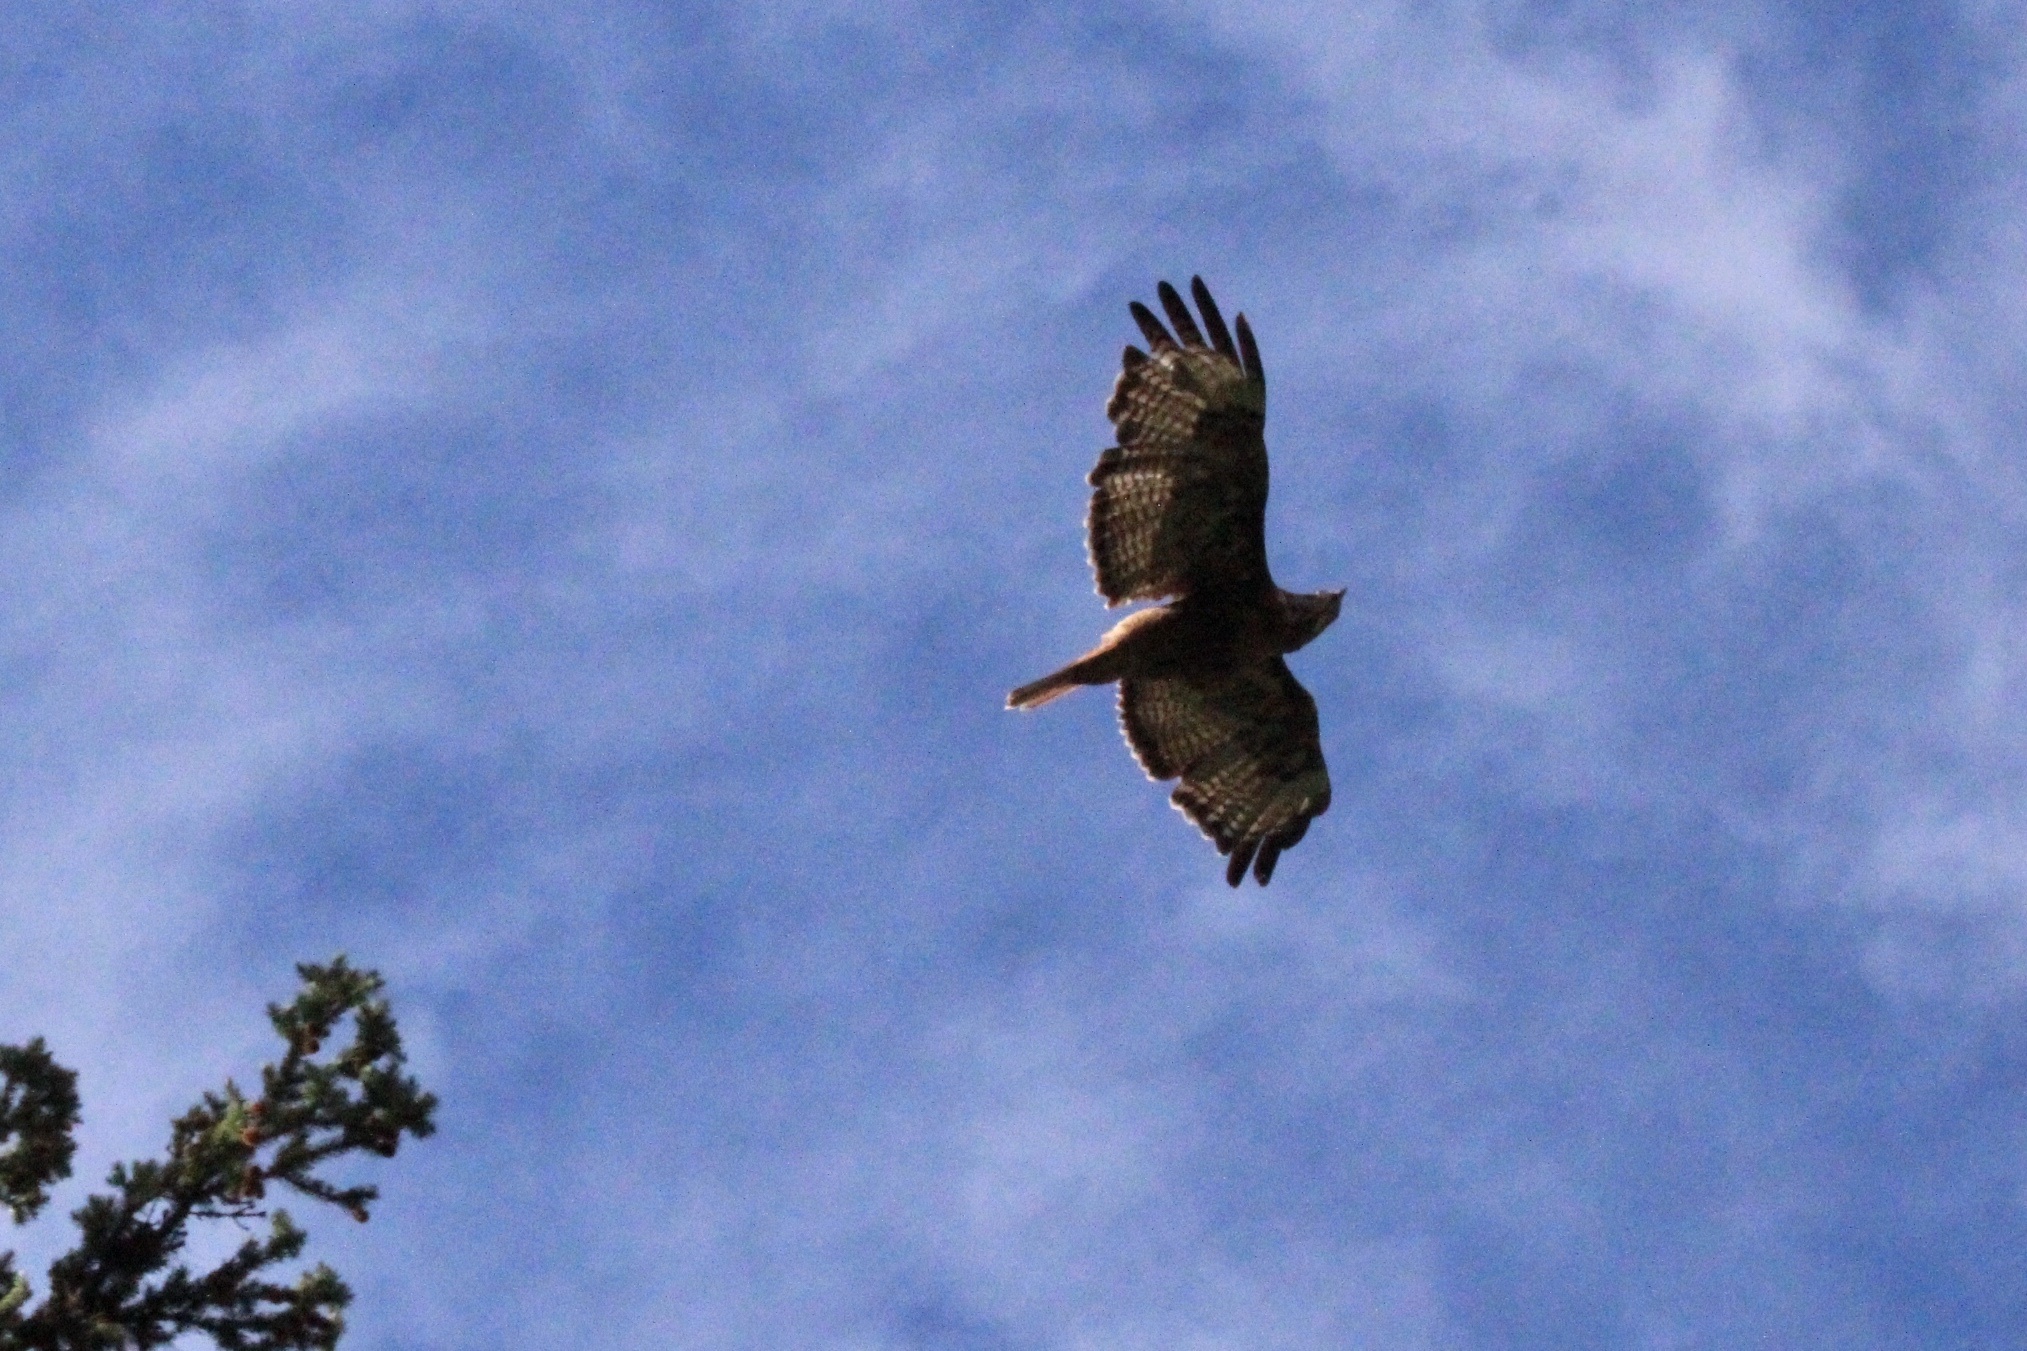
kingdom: Animalia
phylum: Chordata
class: Aves
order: Accipitriformes
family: Accipitridae
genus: Buteo
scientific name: Buteo jamaicensis
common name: Red-tailed hawk
